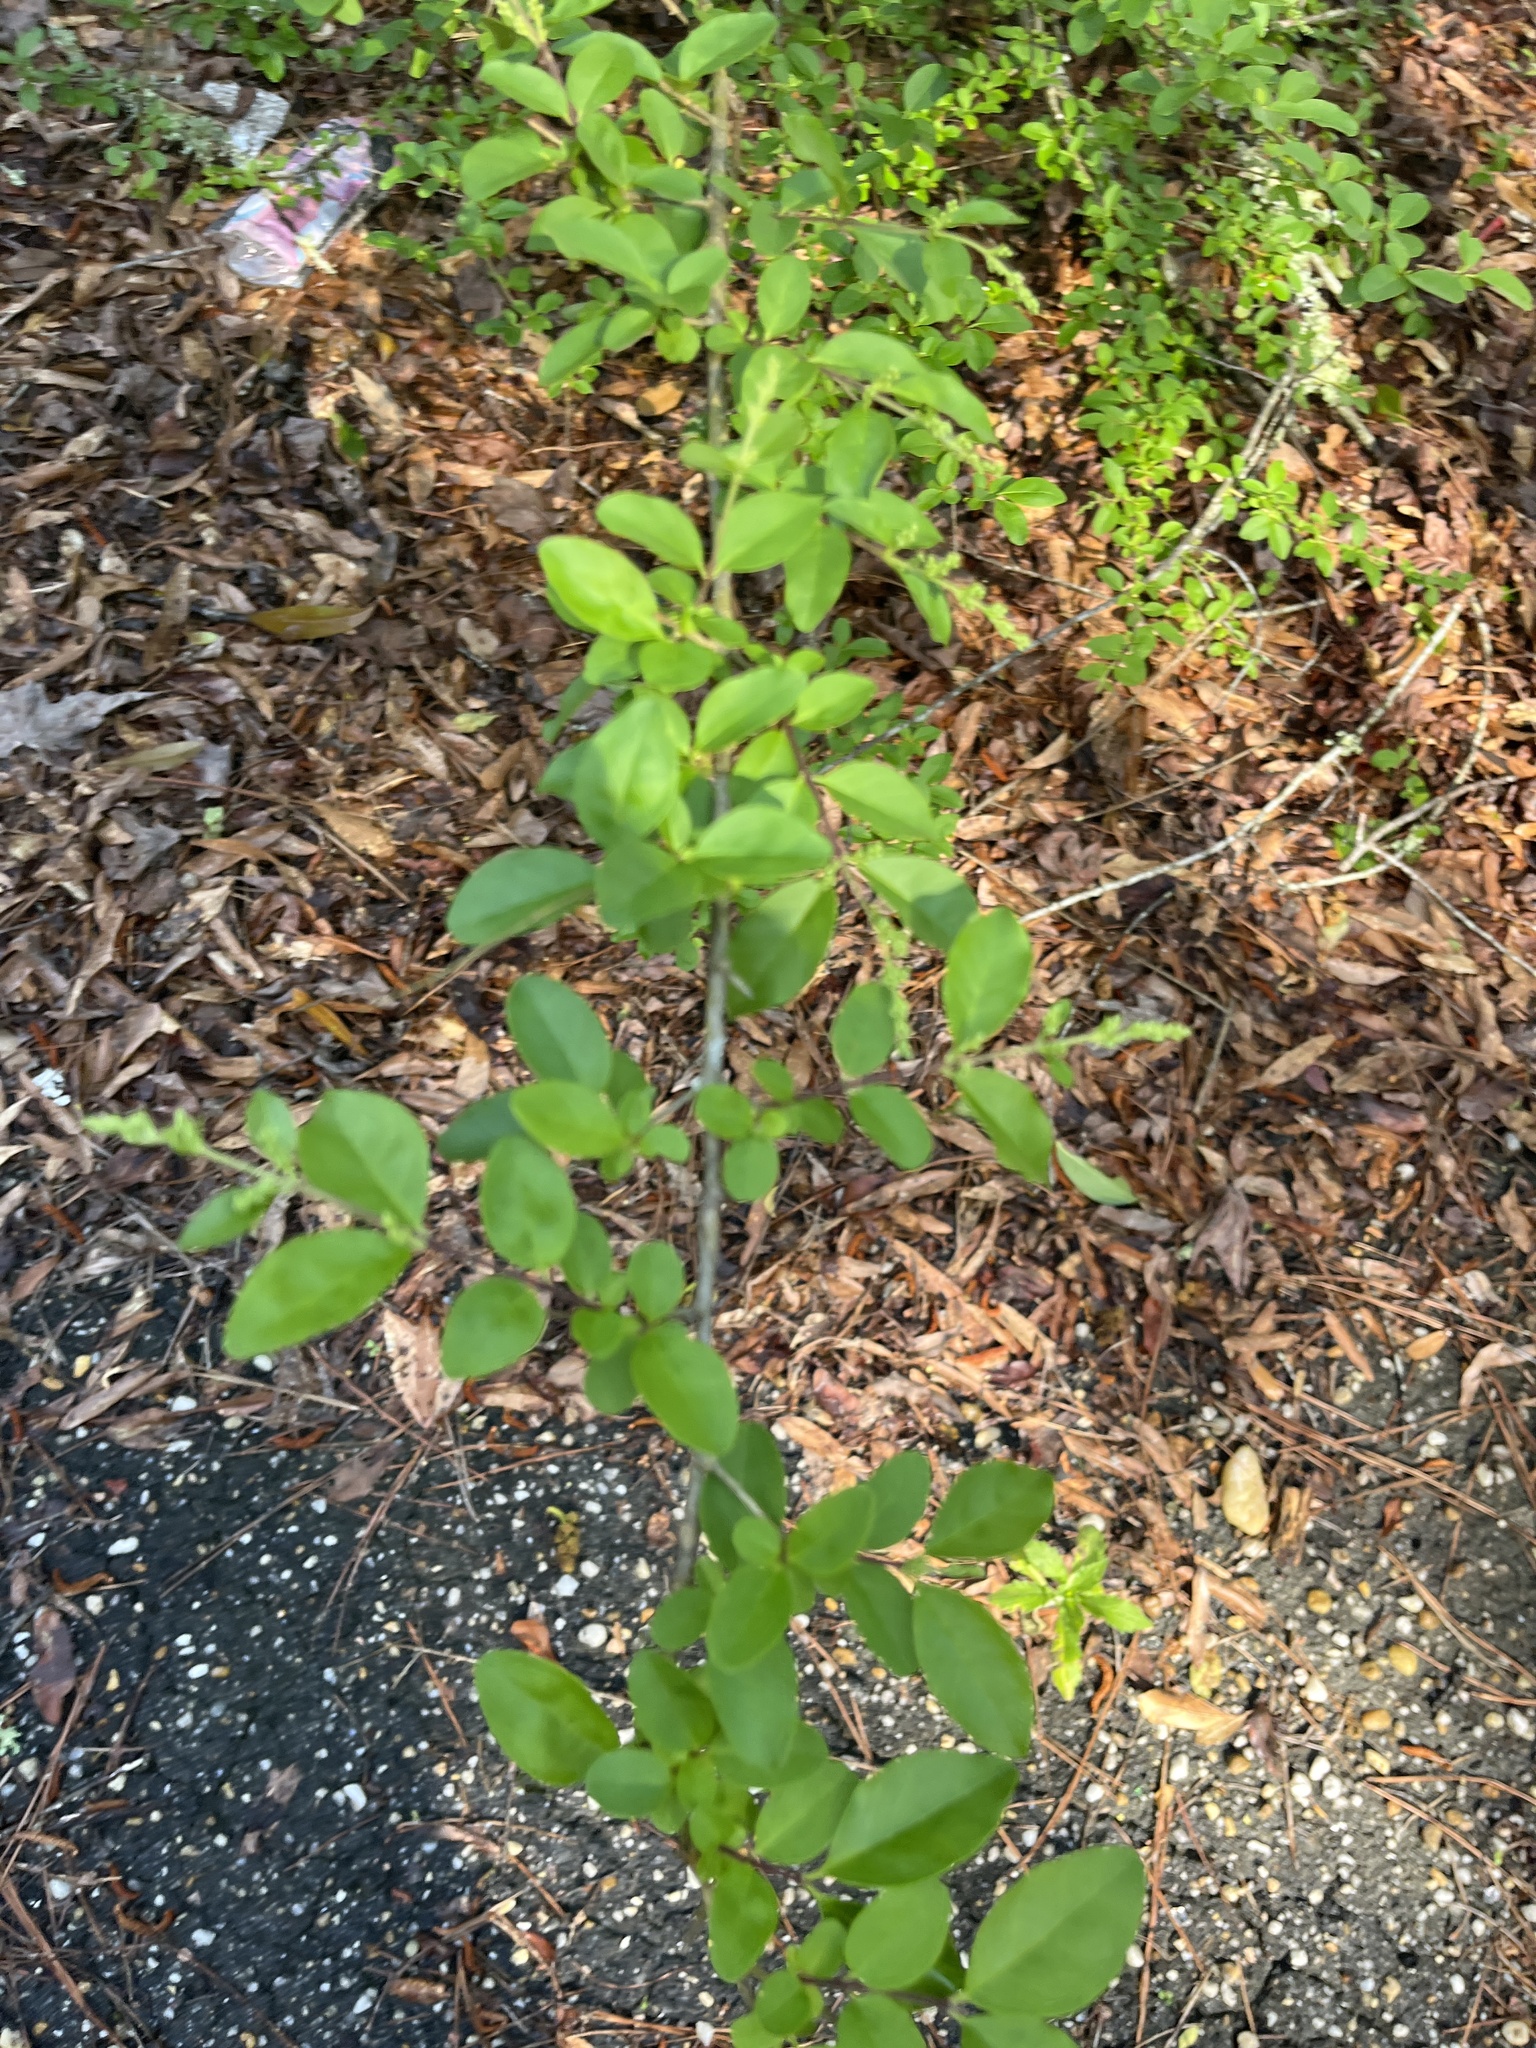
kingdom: Plantae
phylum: Tracheophyta
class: Magnoliopsida
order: Lamiales
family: Oleaceae
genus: Ligustrum
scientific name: Ligustrum sinense
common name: Chinese privet
